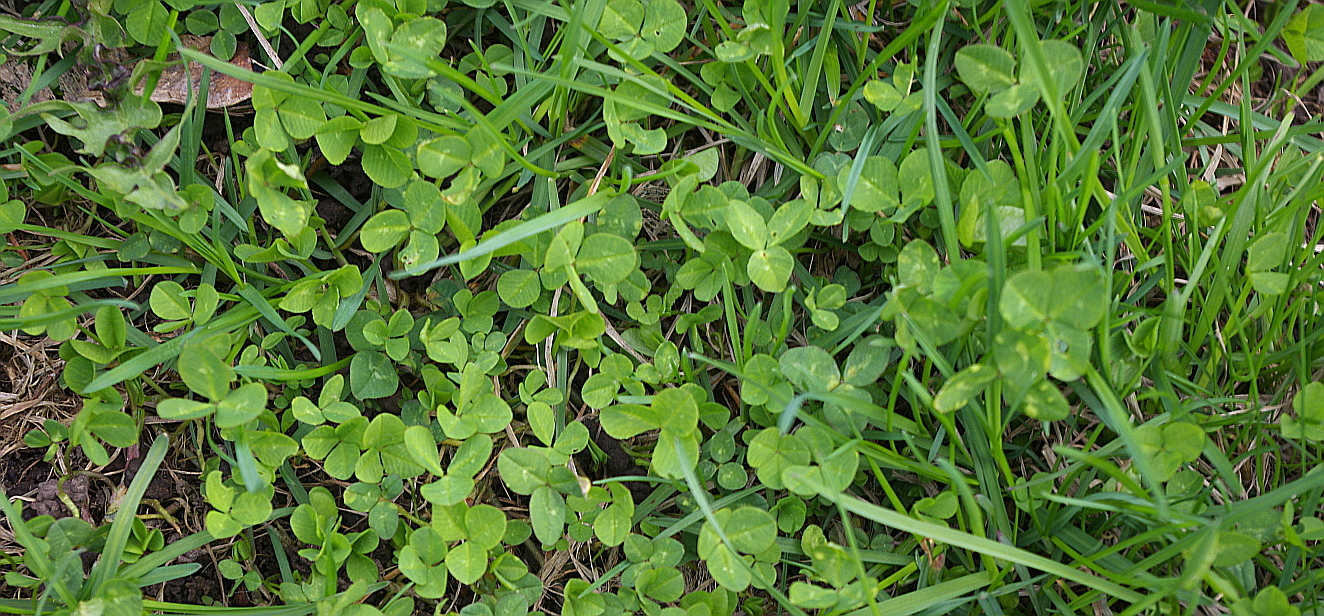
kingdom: Plantae
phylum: Tracheophyta
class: Magnoliopsida
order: Fabales
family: Fabaceae
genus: Trifolium
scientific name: Trifolium repens
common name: White clover
